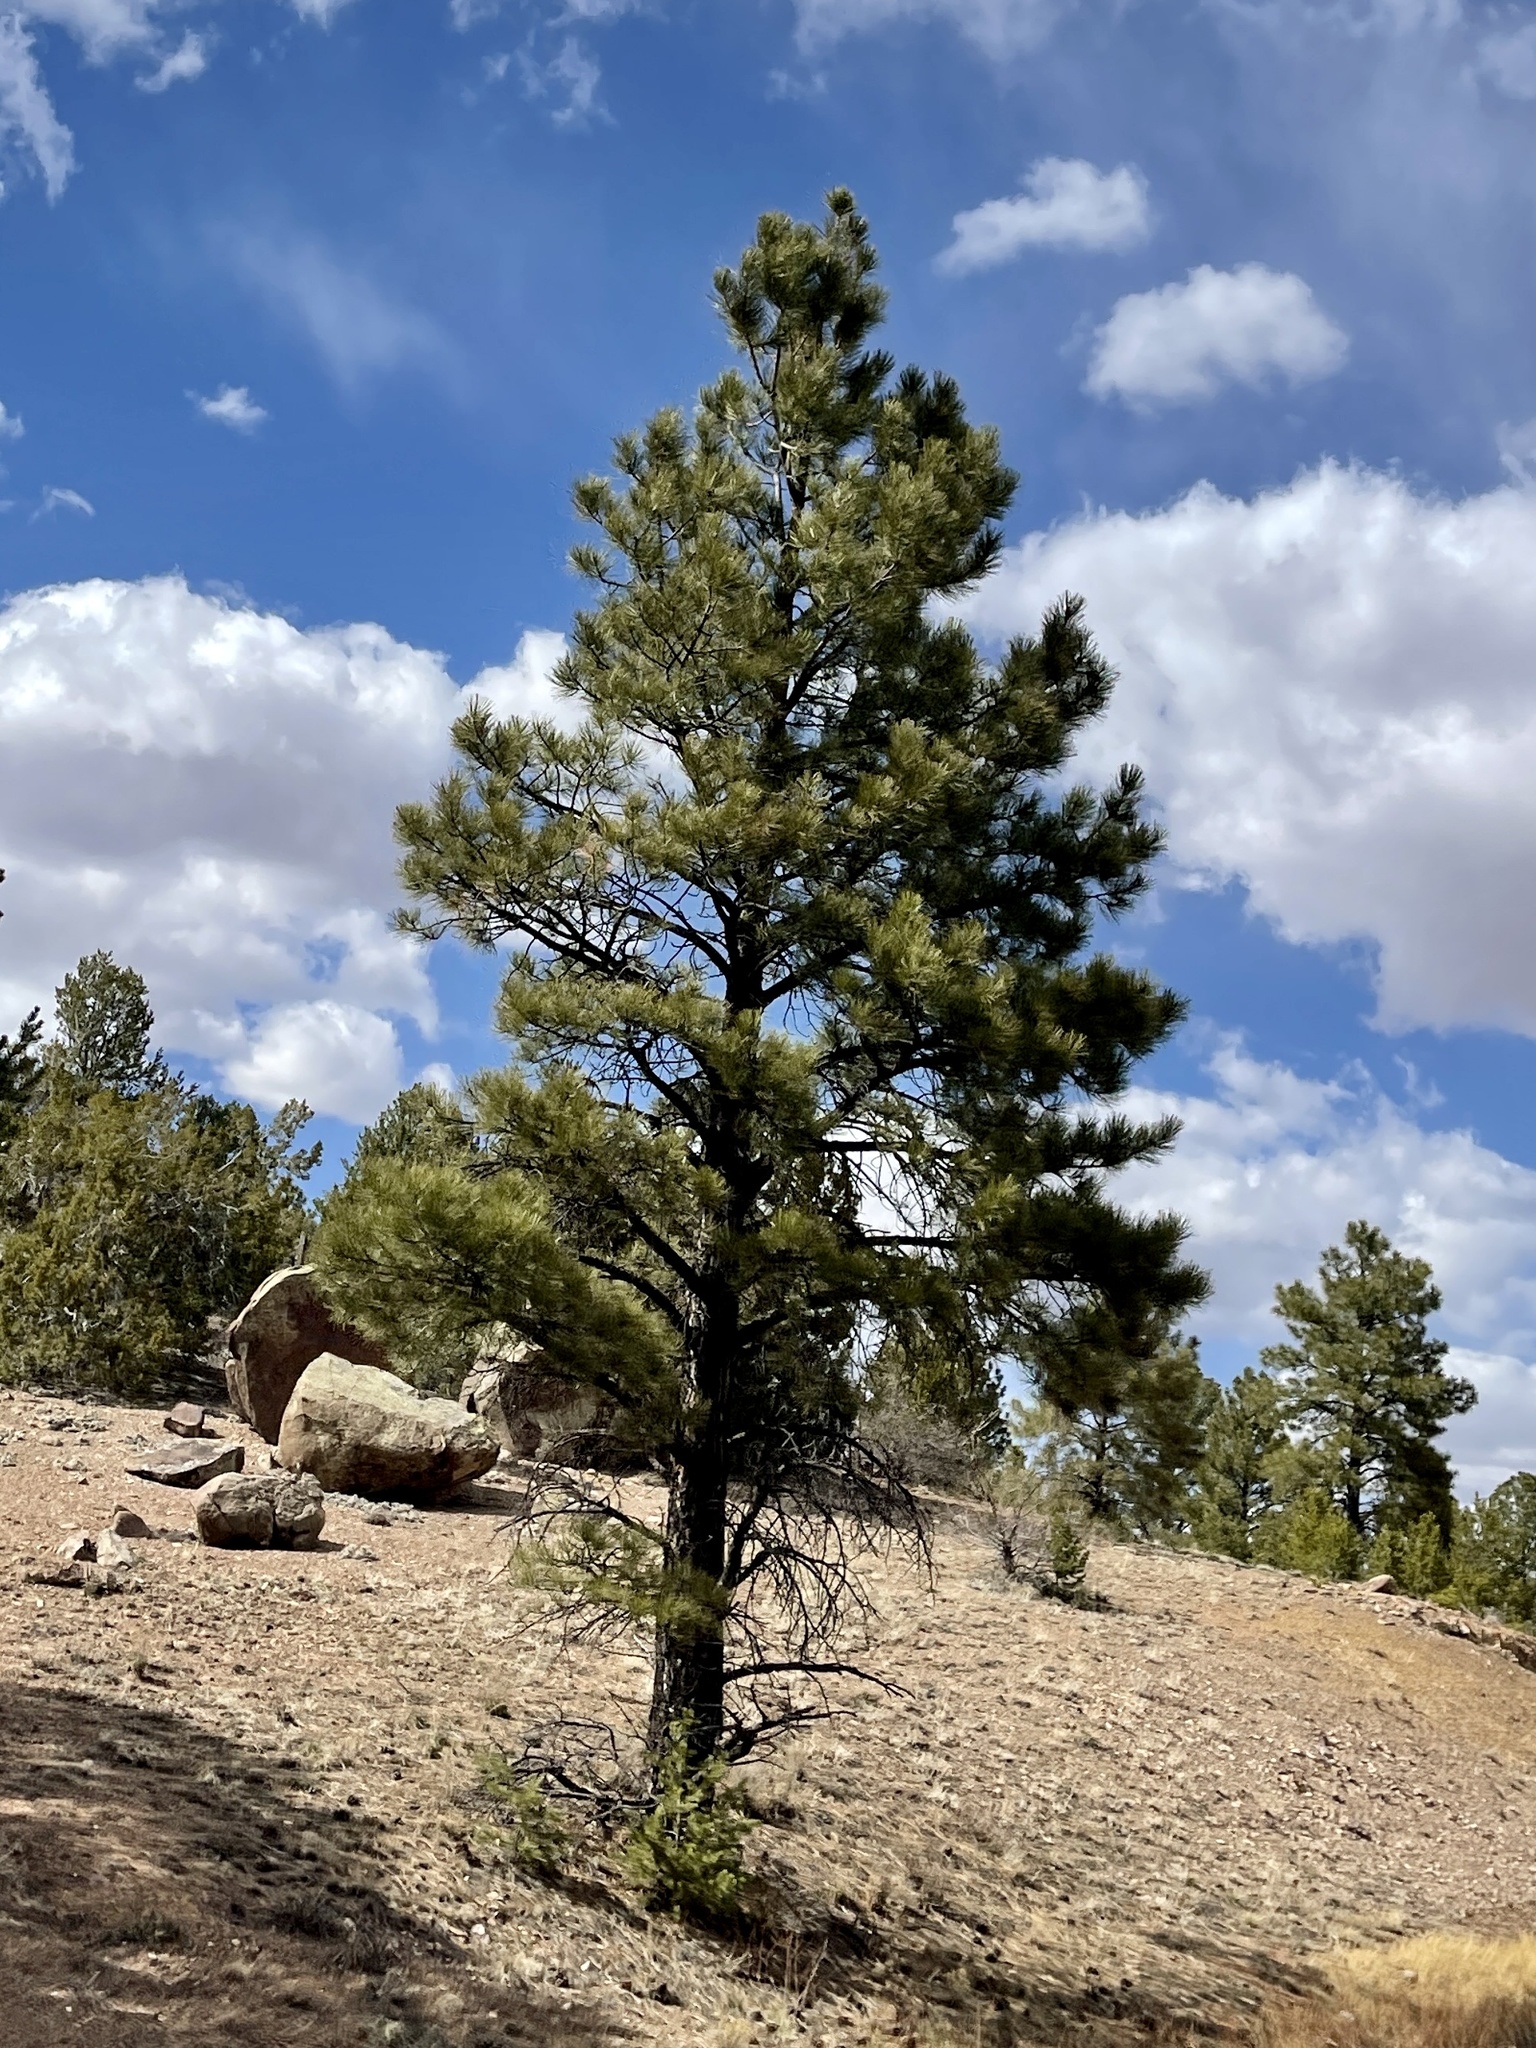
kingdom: Plantae
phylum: Tracheophyta
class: Pinopsida
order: Pinales
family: Pinaceae
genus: Pinus
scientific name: Pinus ponderosa
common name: Western yellow-pine
